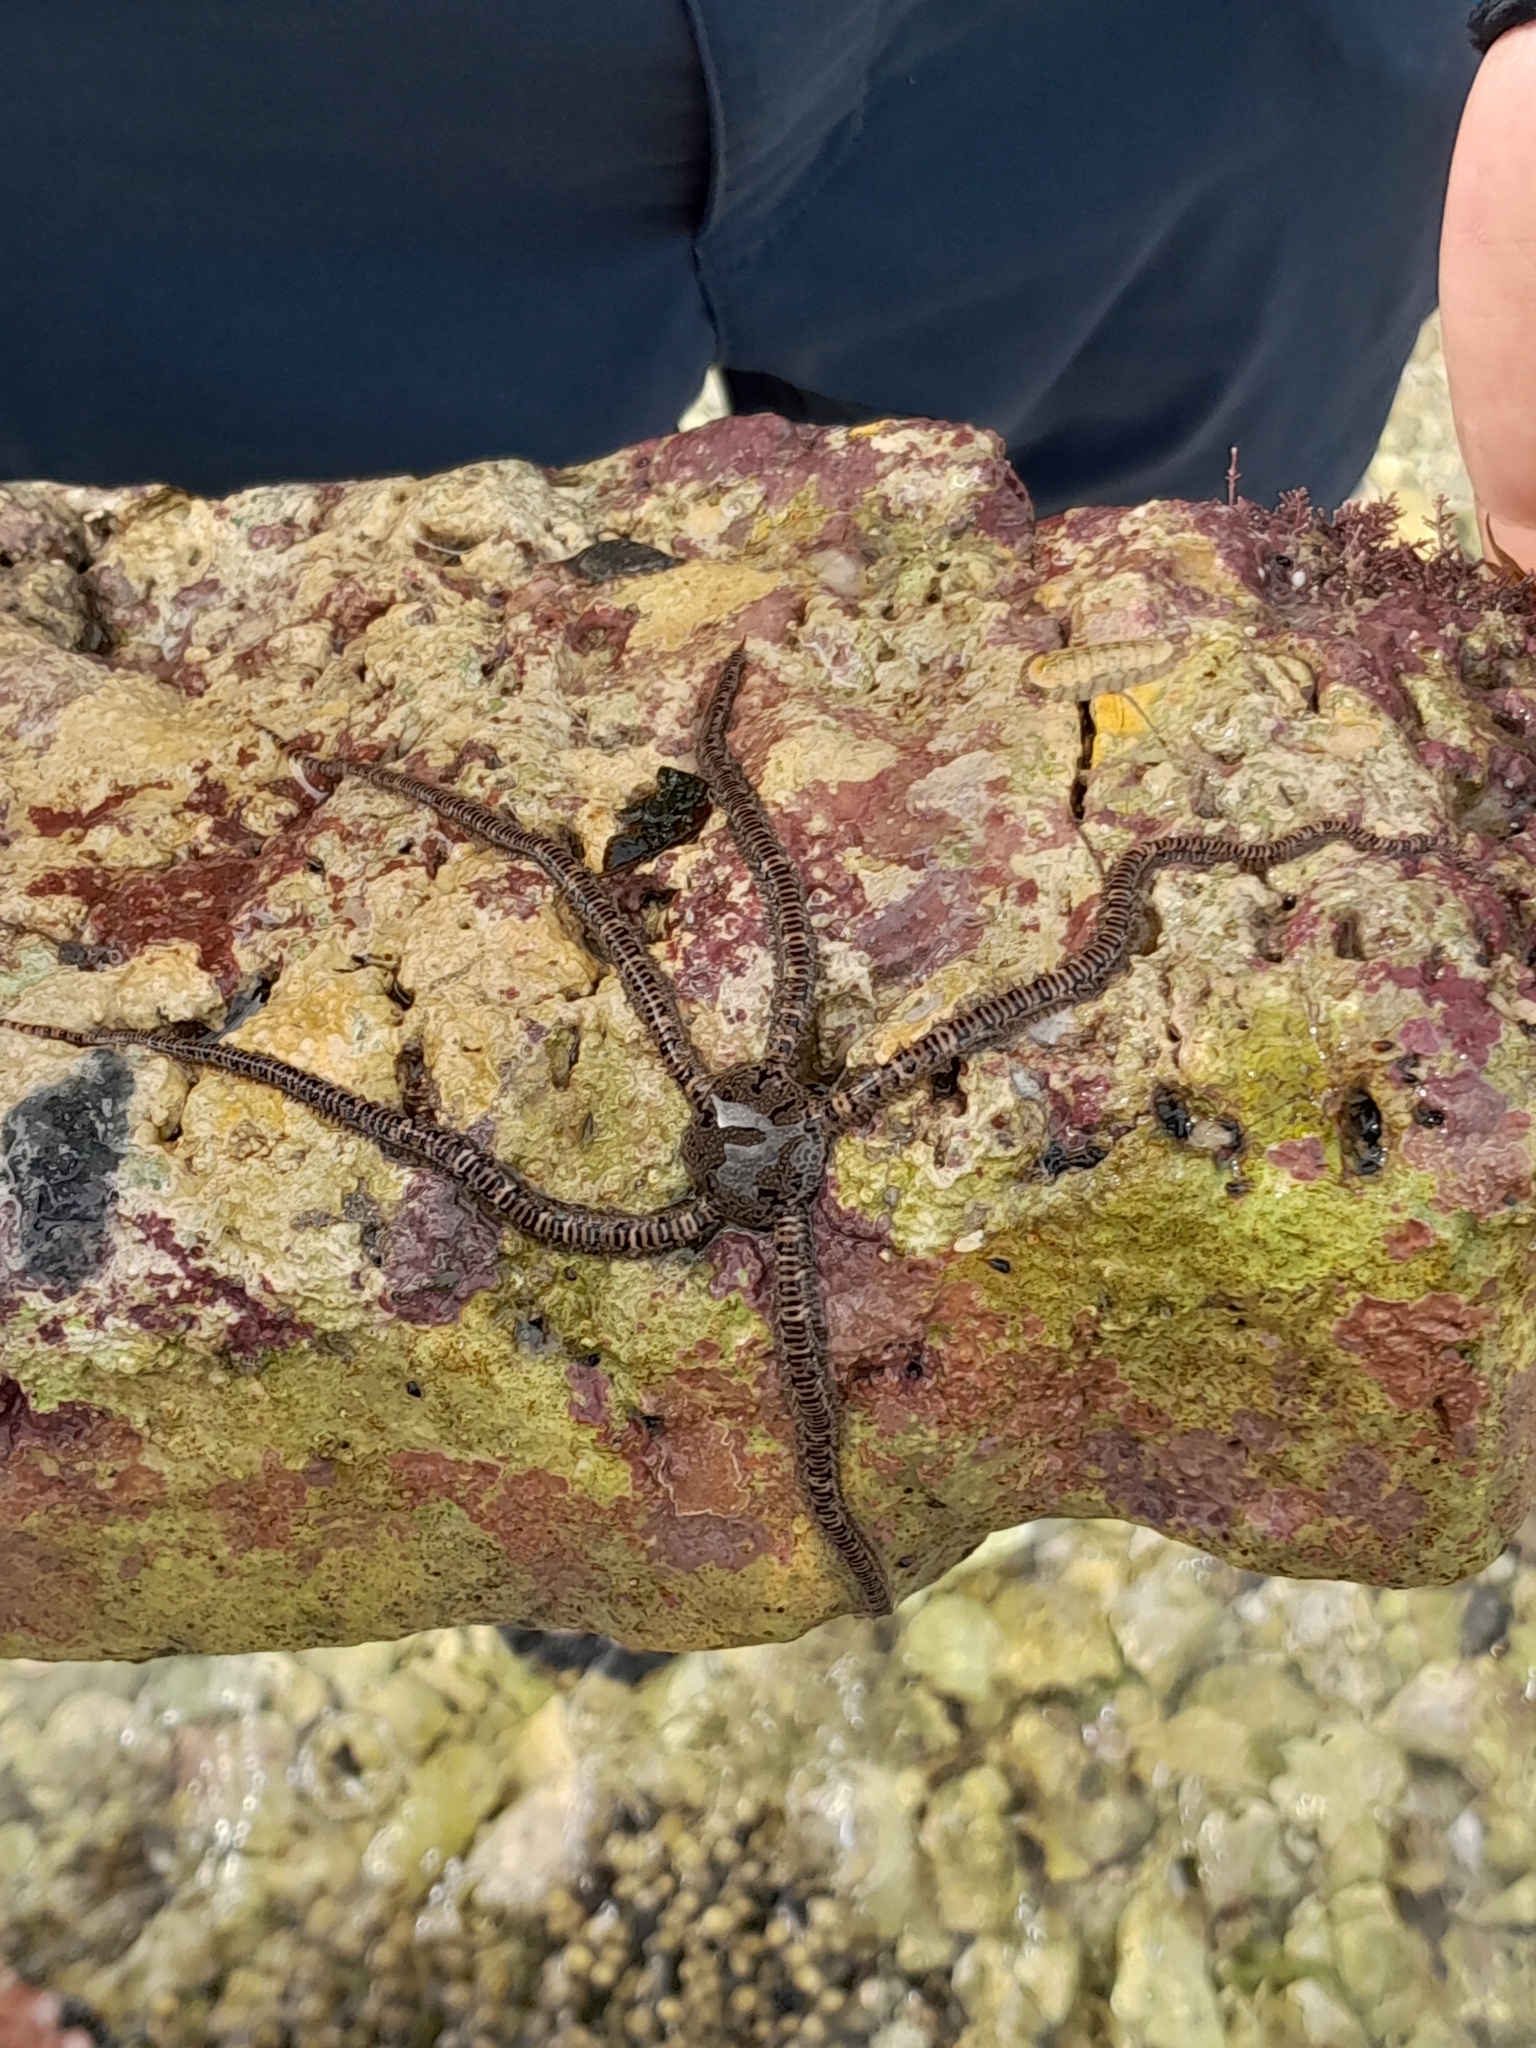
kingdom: Animalia
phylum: Echinodermata
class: Ophiuroidea
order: Amphilepidida
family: Ophionereididae
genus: Ophionereis
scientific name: Ophionereis fasciata
